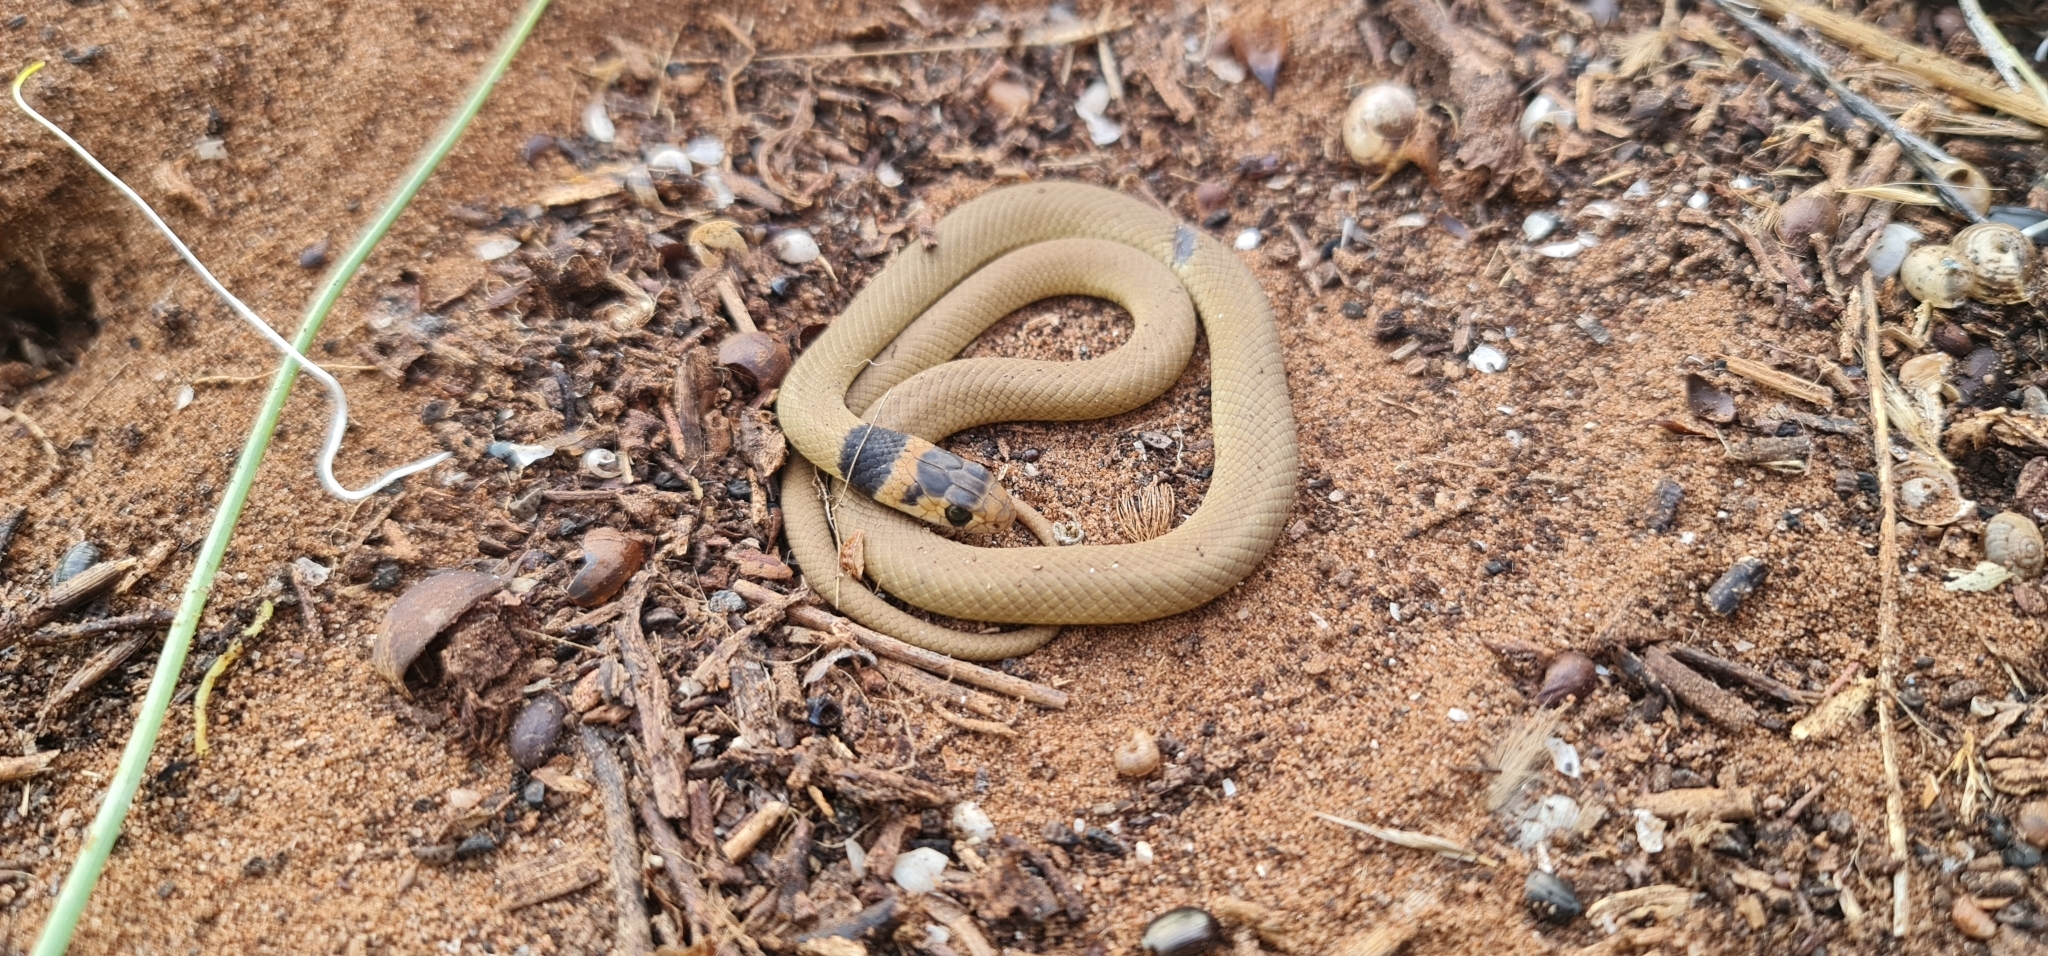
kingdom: Animalia
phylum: Chordata
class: Squamata
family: Elapidae
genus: Pseudonaja
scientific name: Pseudonaja textilis
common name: Eastern brown snake
